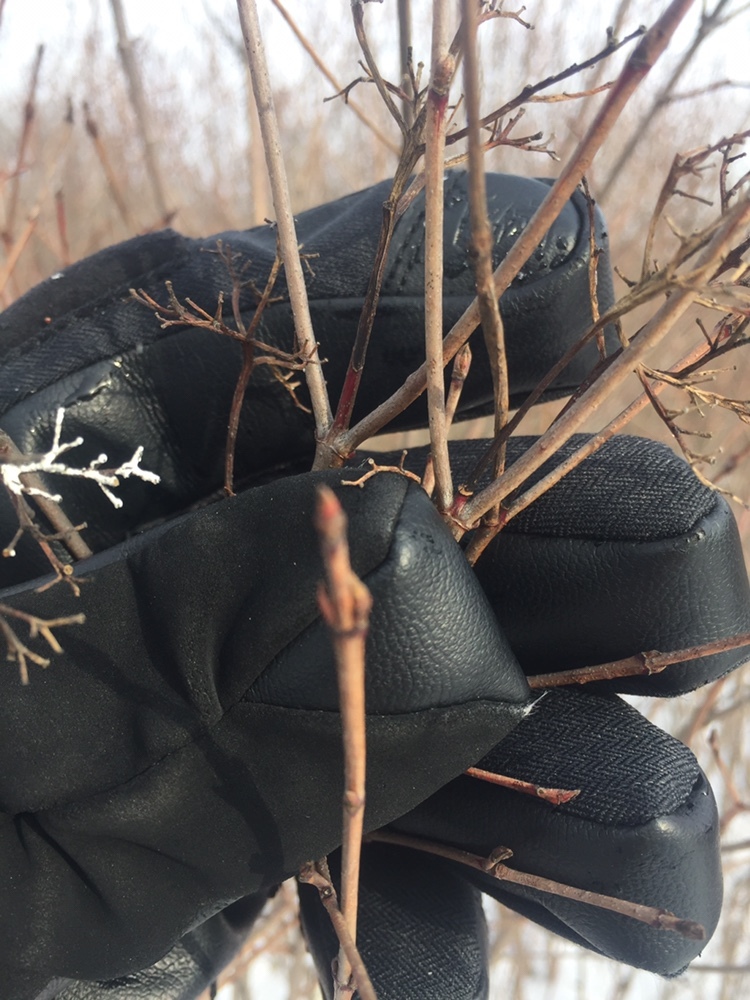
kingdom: Plantae
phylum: Tracheophyta
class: Magnoliopsida
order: Cornales
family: Cornaceae
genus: Cornus
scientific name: Cornus racemosa
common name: Panicled dogwood
